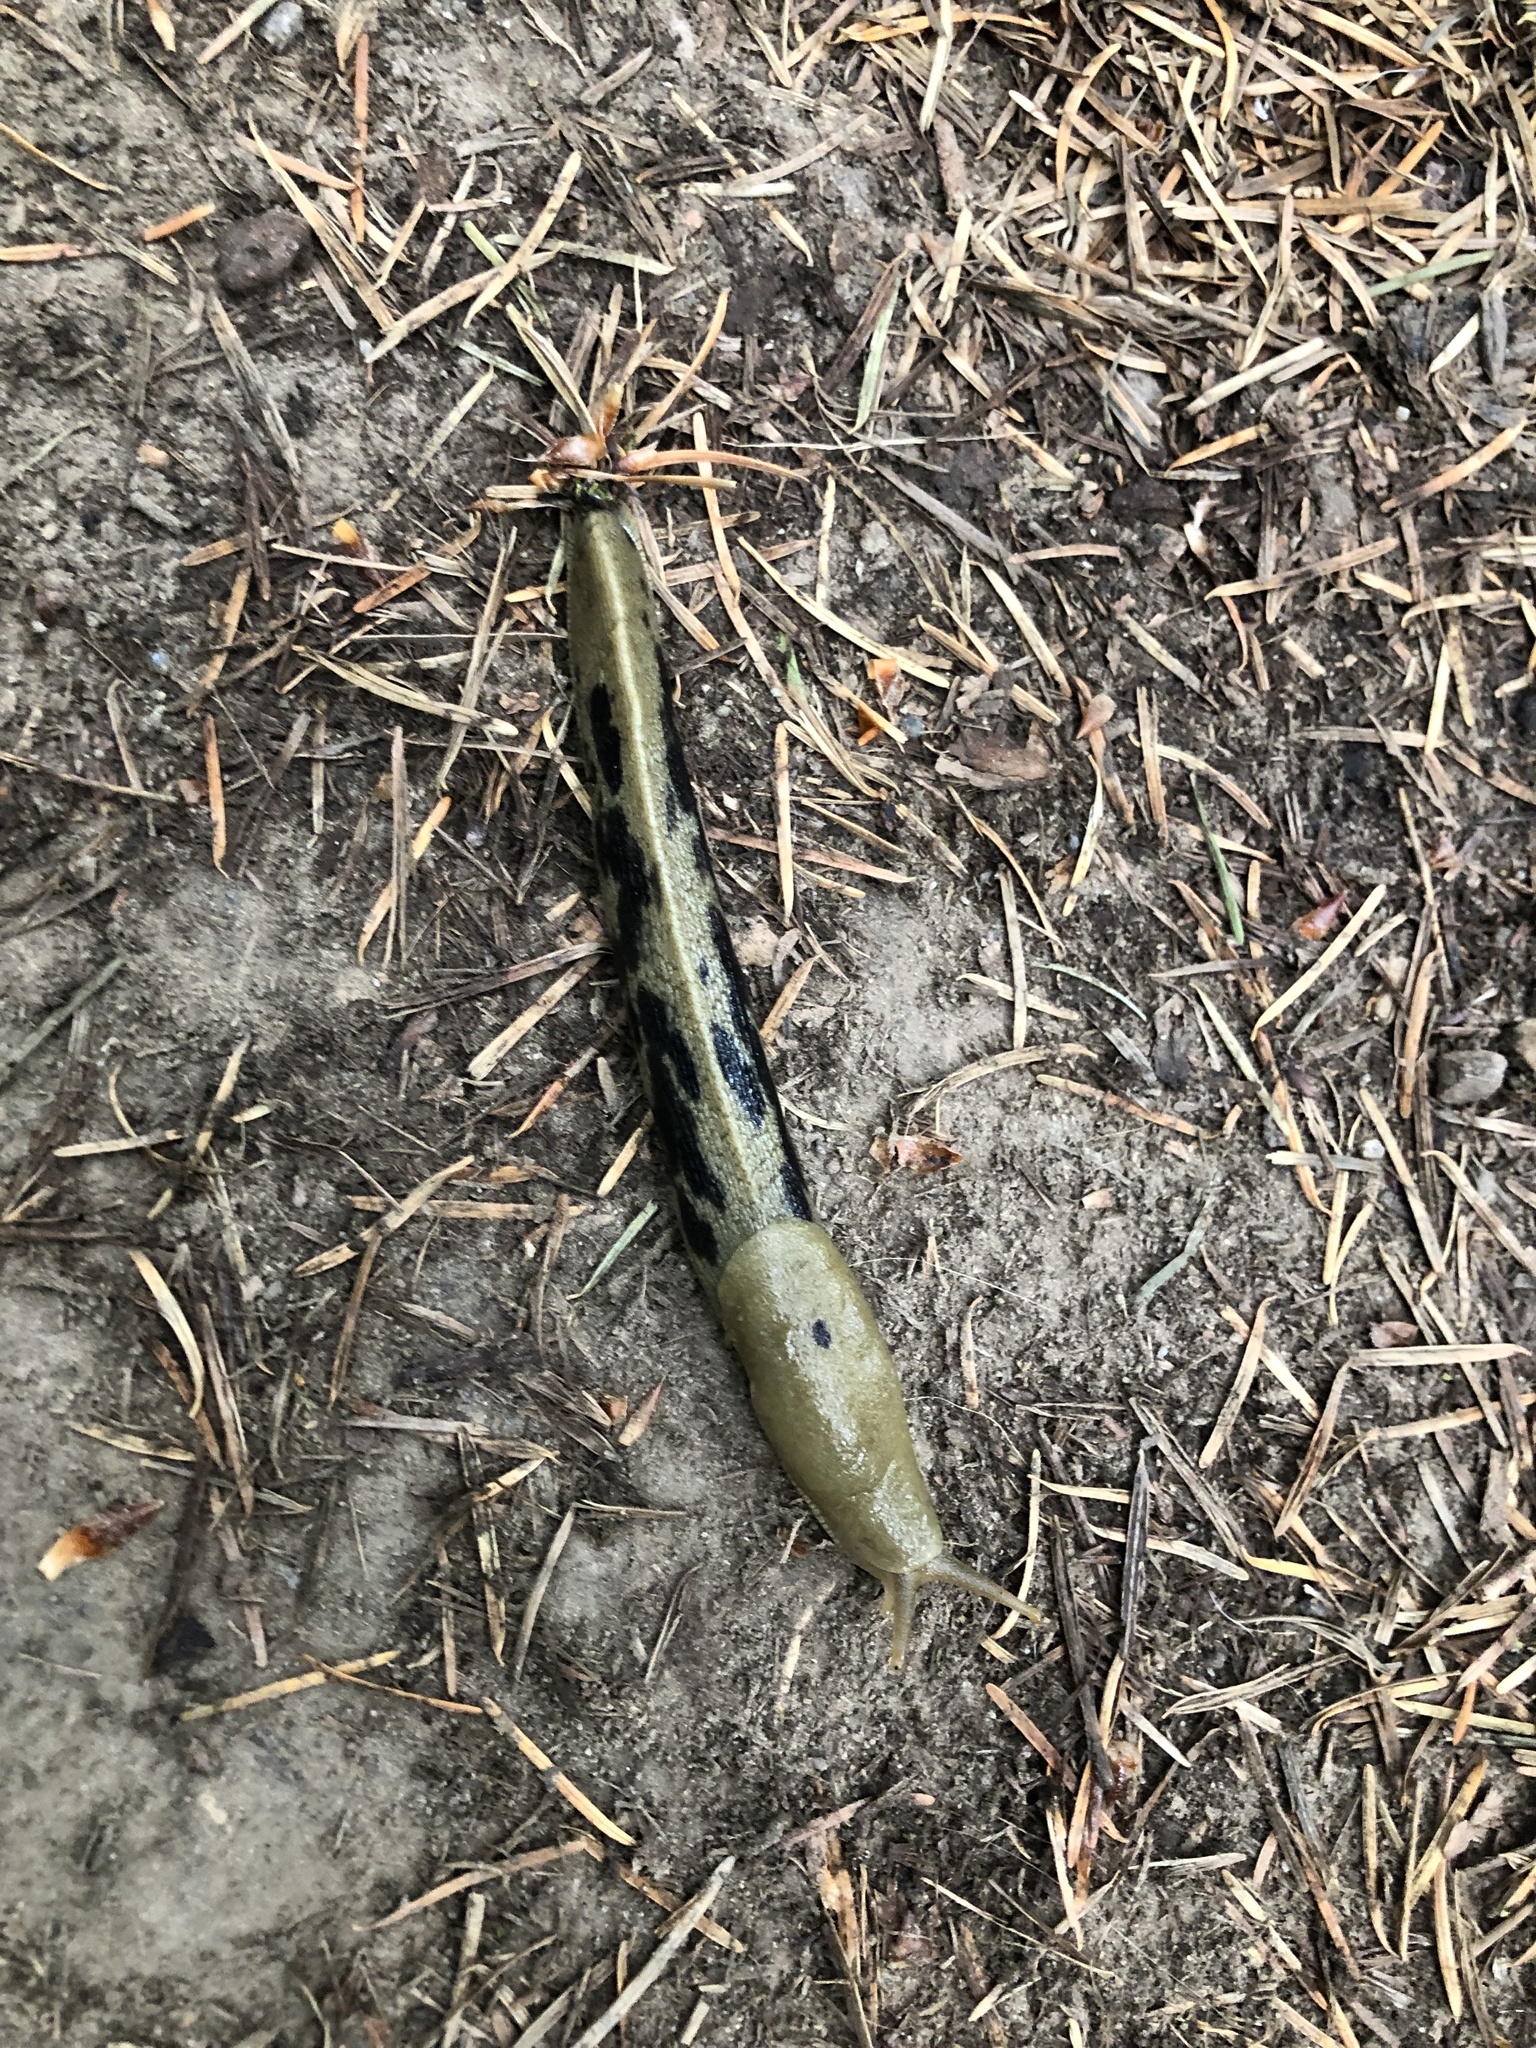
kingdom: Animalia
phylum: Mollusca
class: Gastropoda
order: Stylommatophora
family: Ariolimacidae
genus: Ariolimax
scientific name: Ariolimax columbianus
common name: Pacific banana slug
